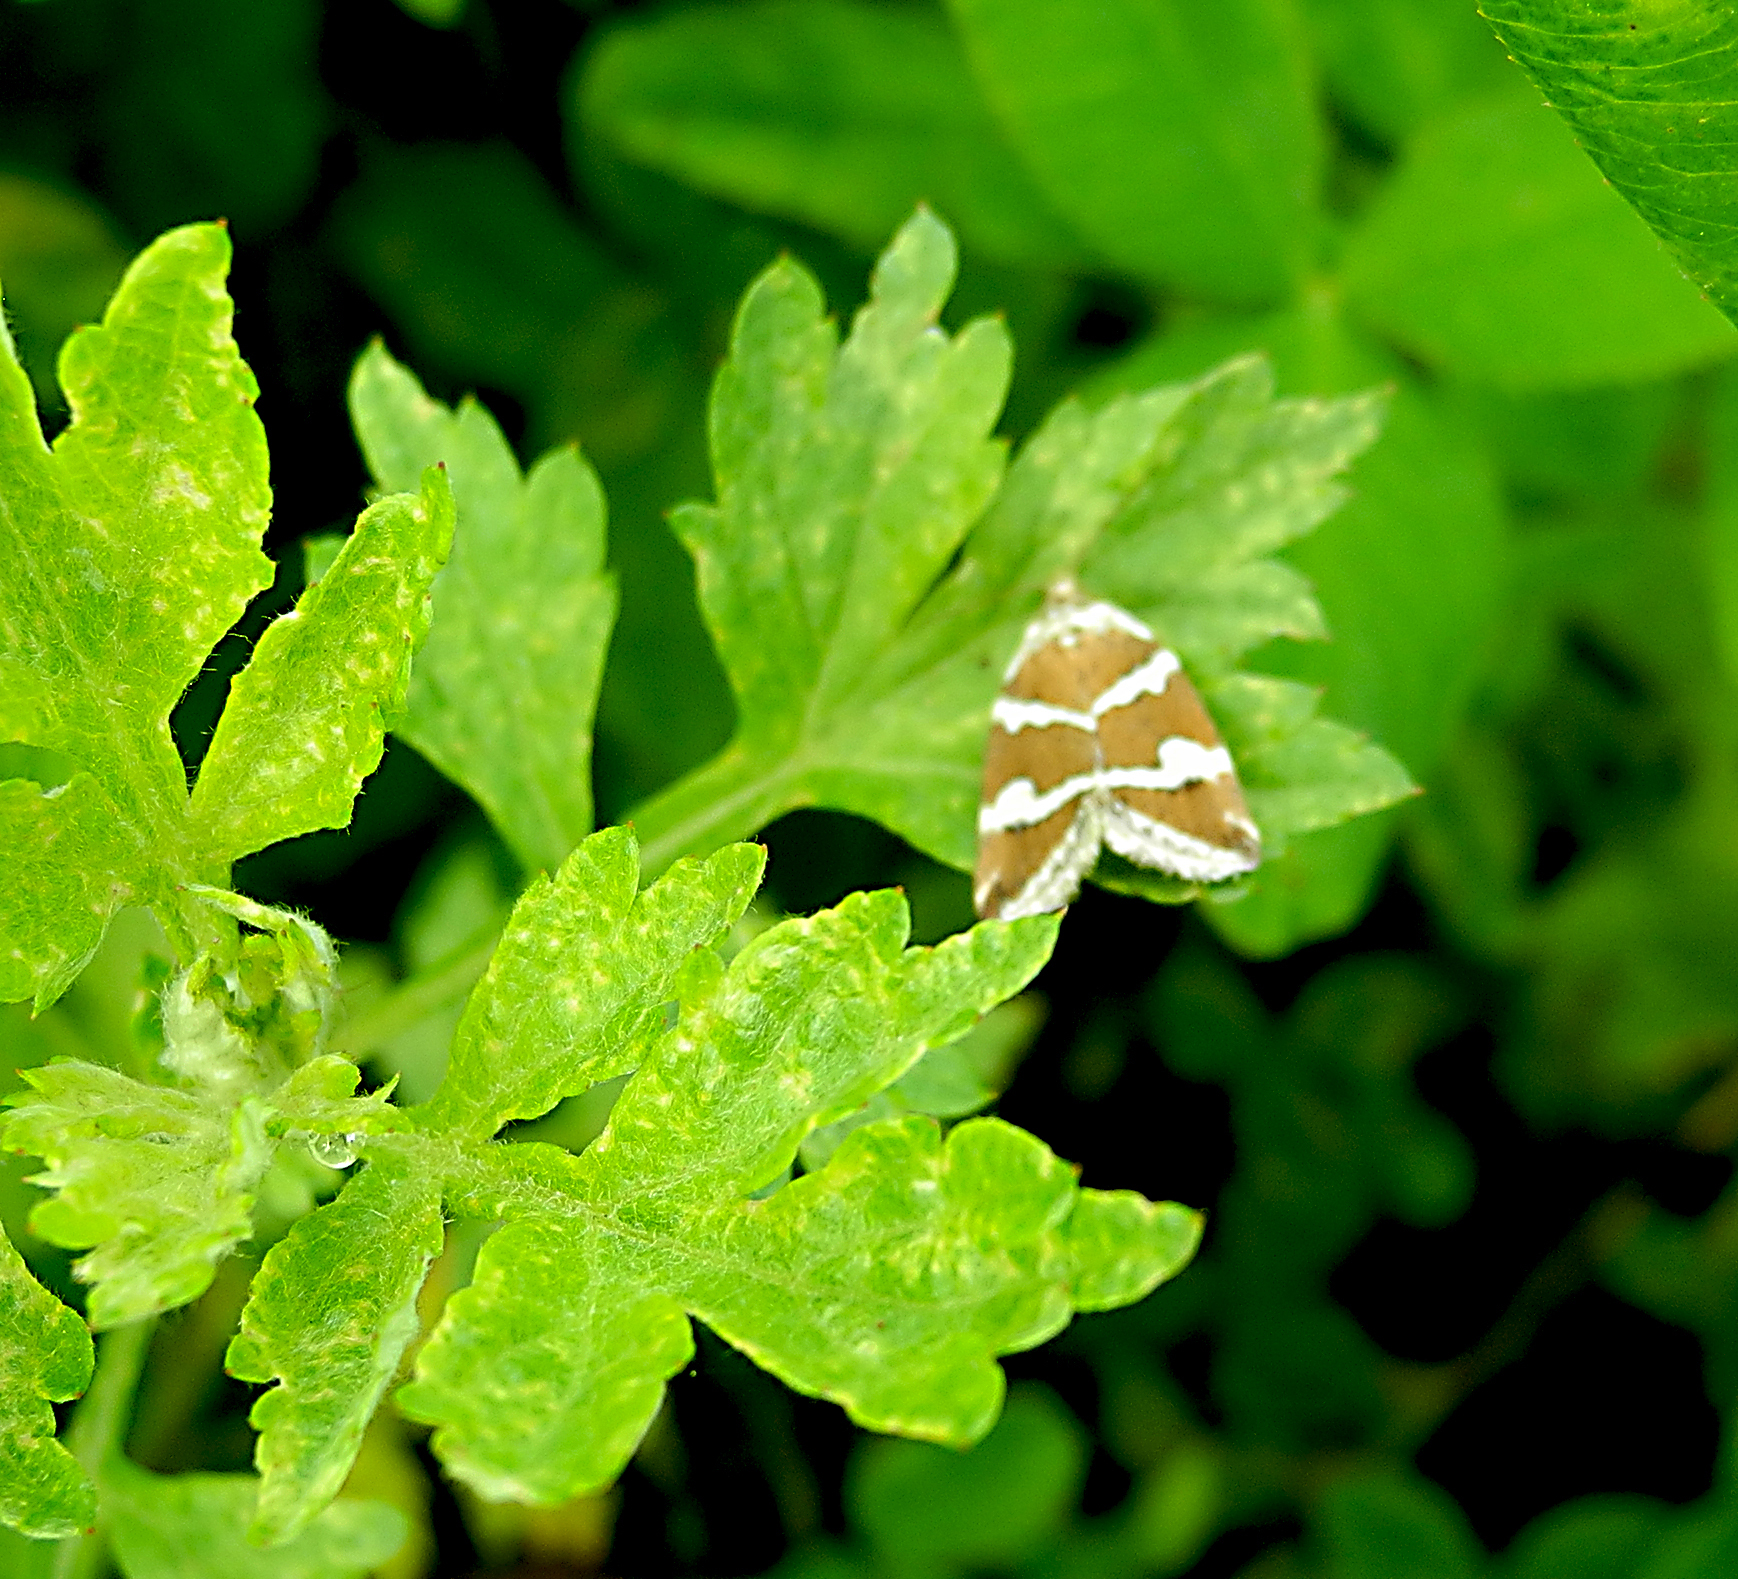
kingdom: Animalia
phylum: Arthropoda
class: Insecta
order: Lepidoptera
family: Noctuidae
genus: Deltote
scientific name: Deltote bankiana
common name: Silver barred
